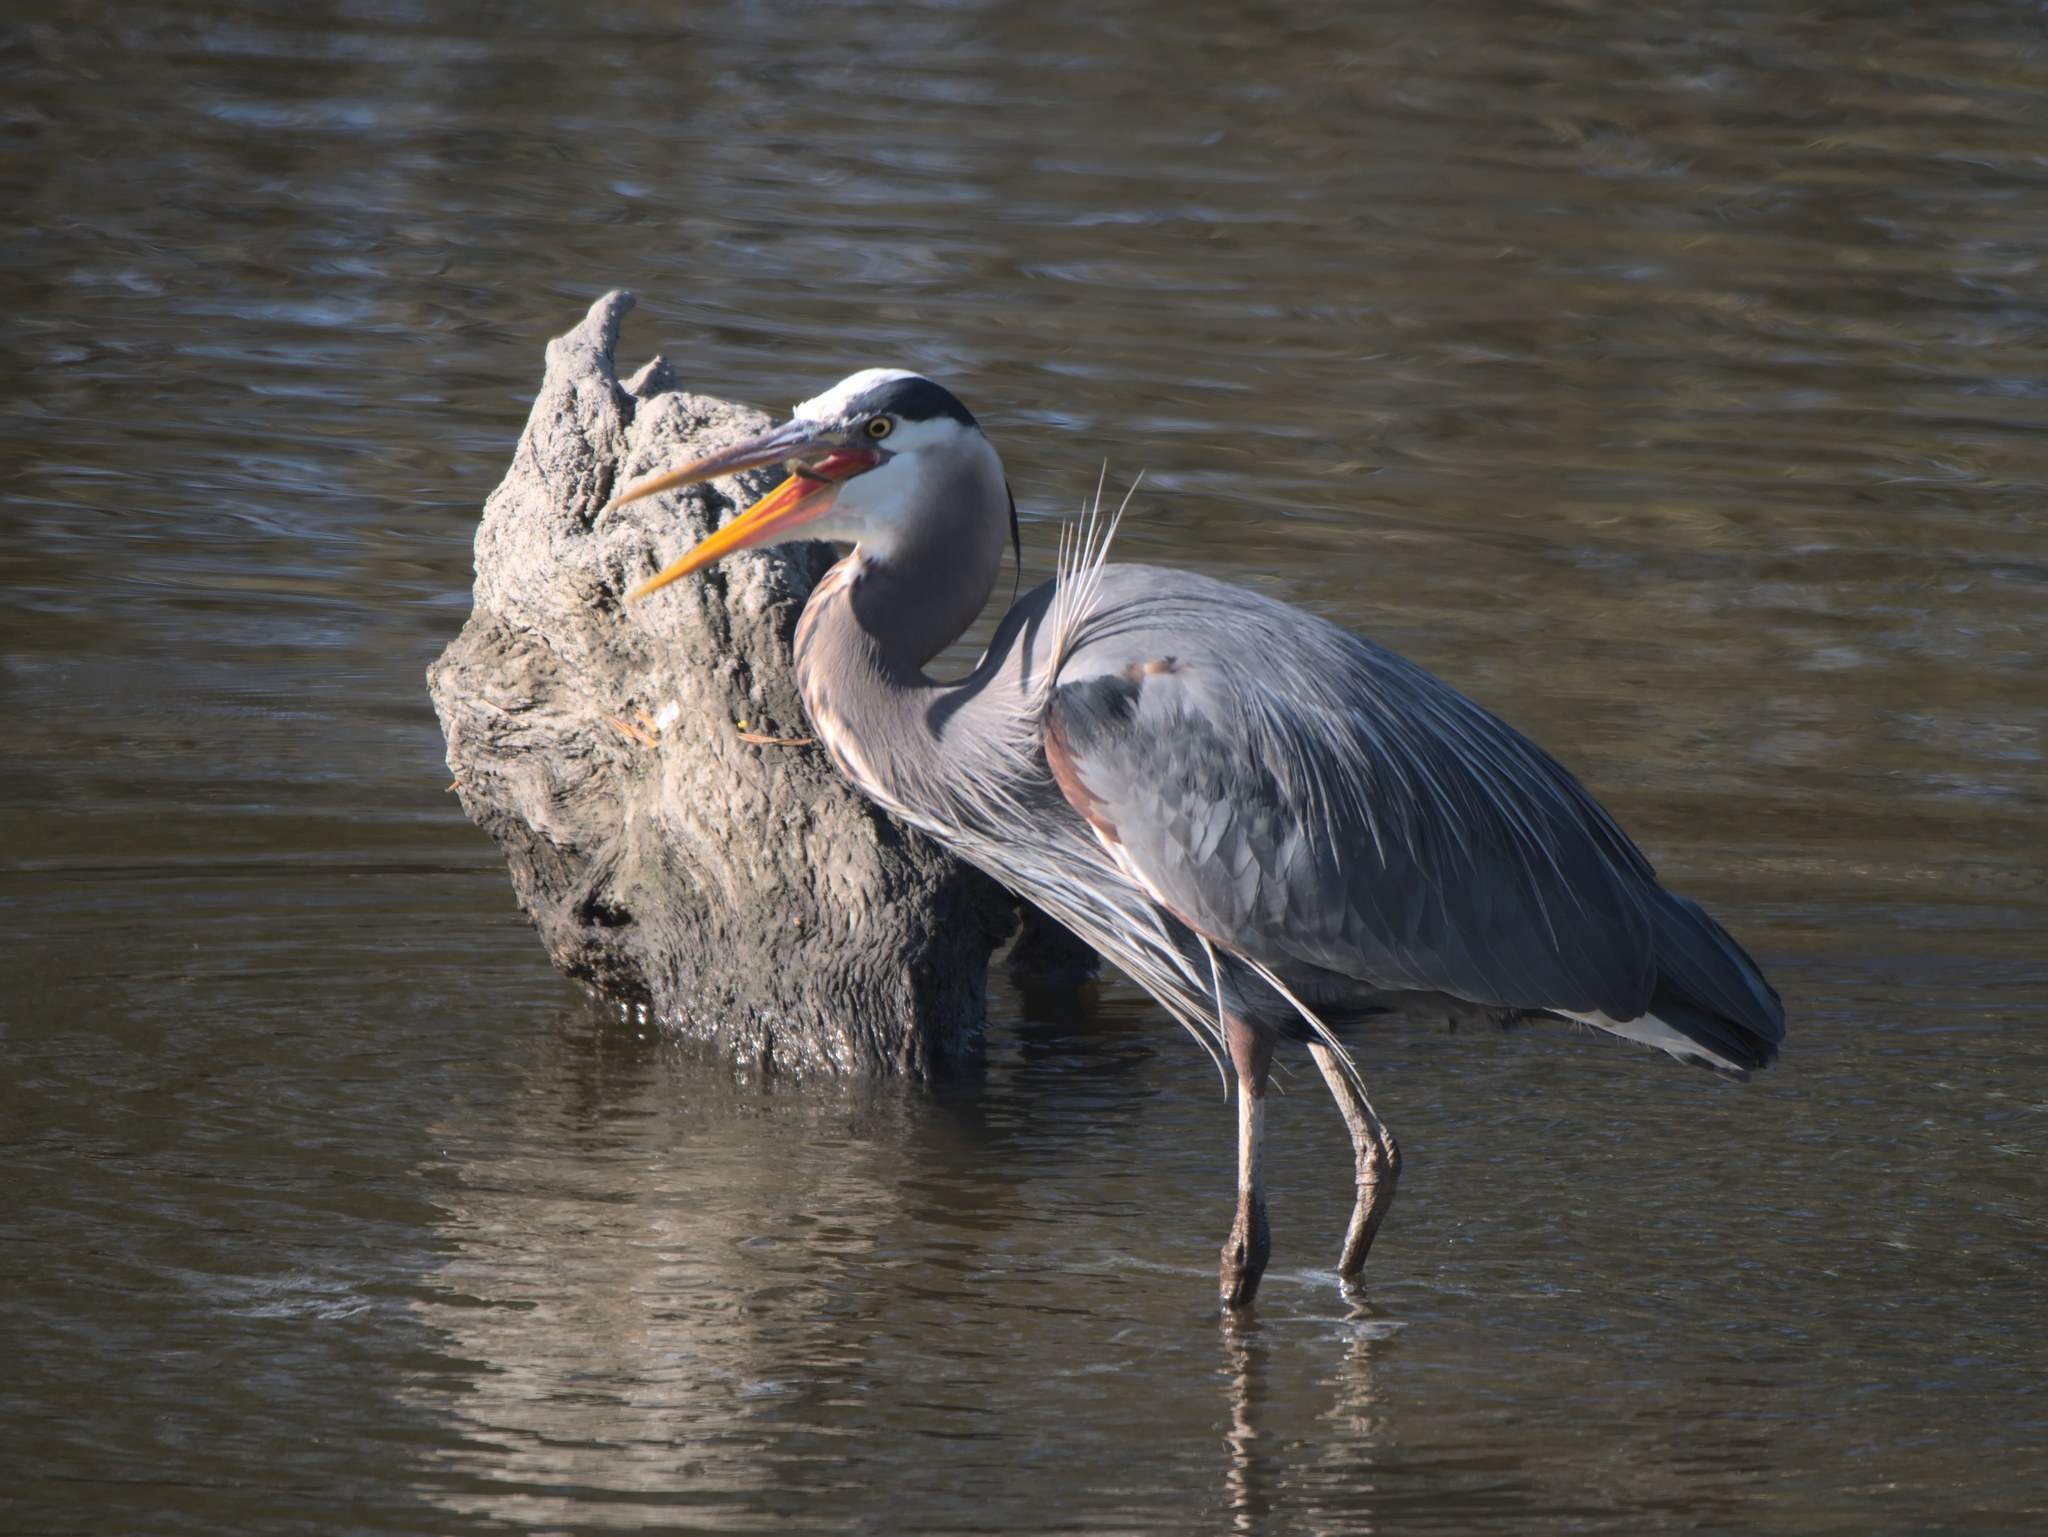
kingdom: Animalia
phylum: Chordata
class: Aves
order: Pelecaniformes
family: Ardeidae
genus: Ardea
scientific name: Ardea herodias
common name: Great blue heron
